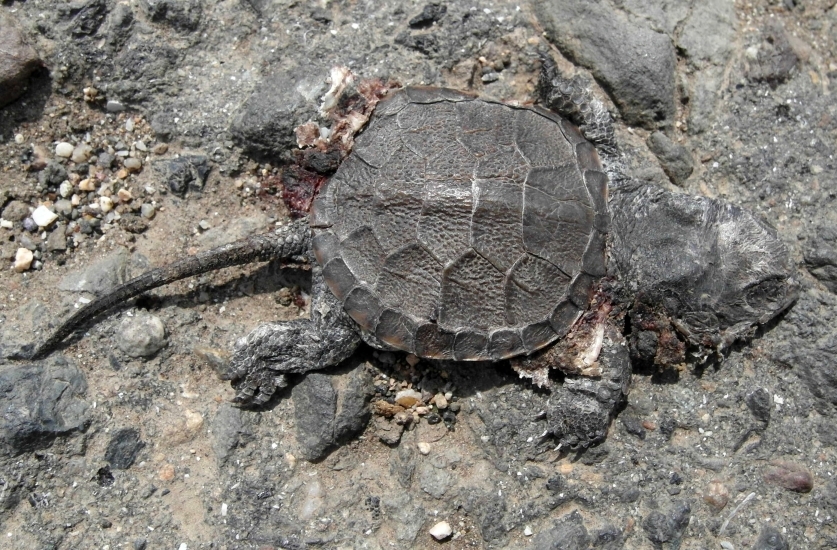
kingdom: Animalia
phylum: Chordata
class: Testudines
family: Emydidae
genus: Emys
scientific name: Emys orbicularis
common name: European pond turtle
